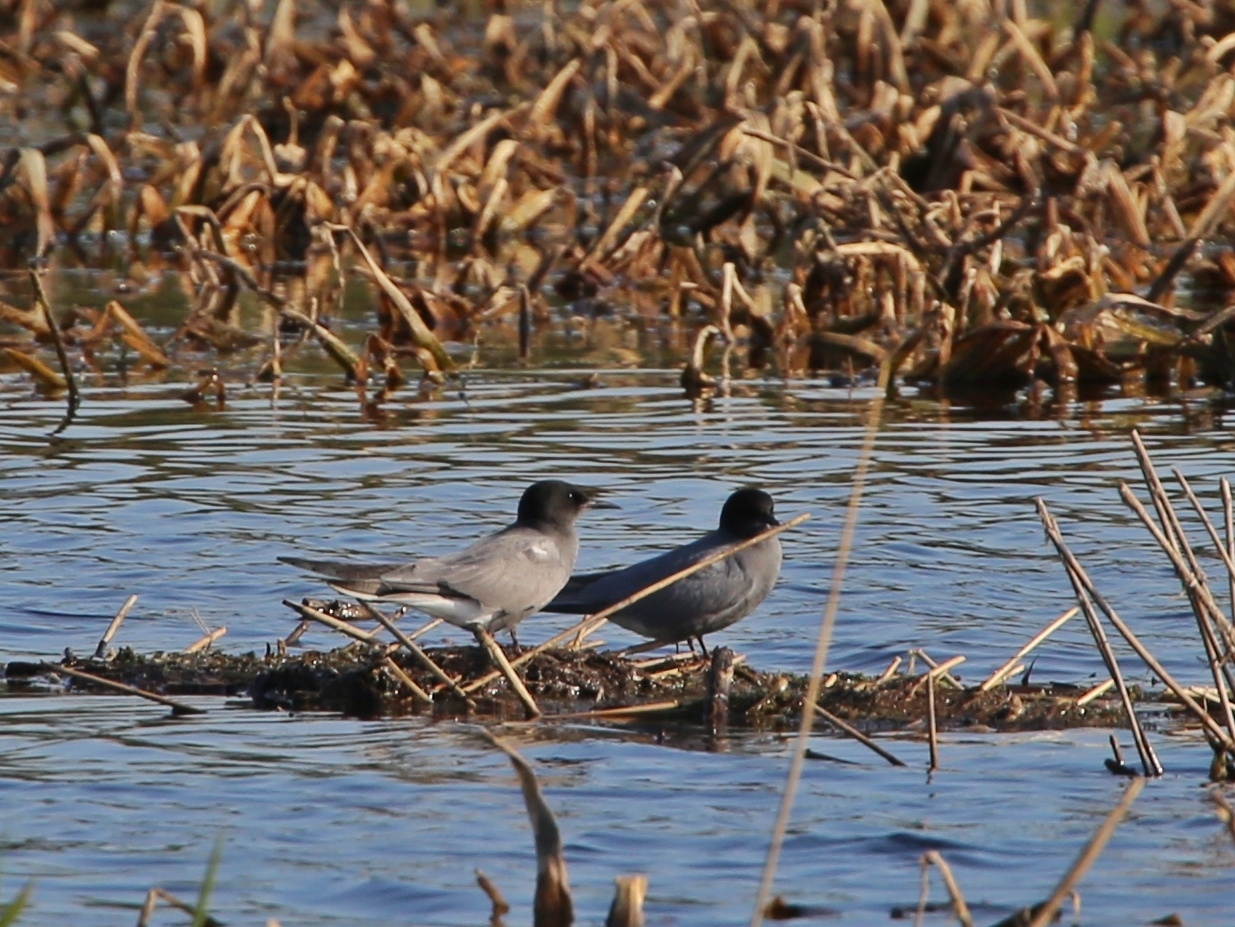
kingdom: Animalia
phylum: Chordata
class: Aves
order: Charadriiformes
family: Laridae
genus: Chlidonias
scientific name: Chlidonias niger
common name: Black tern
